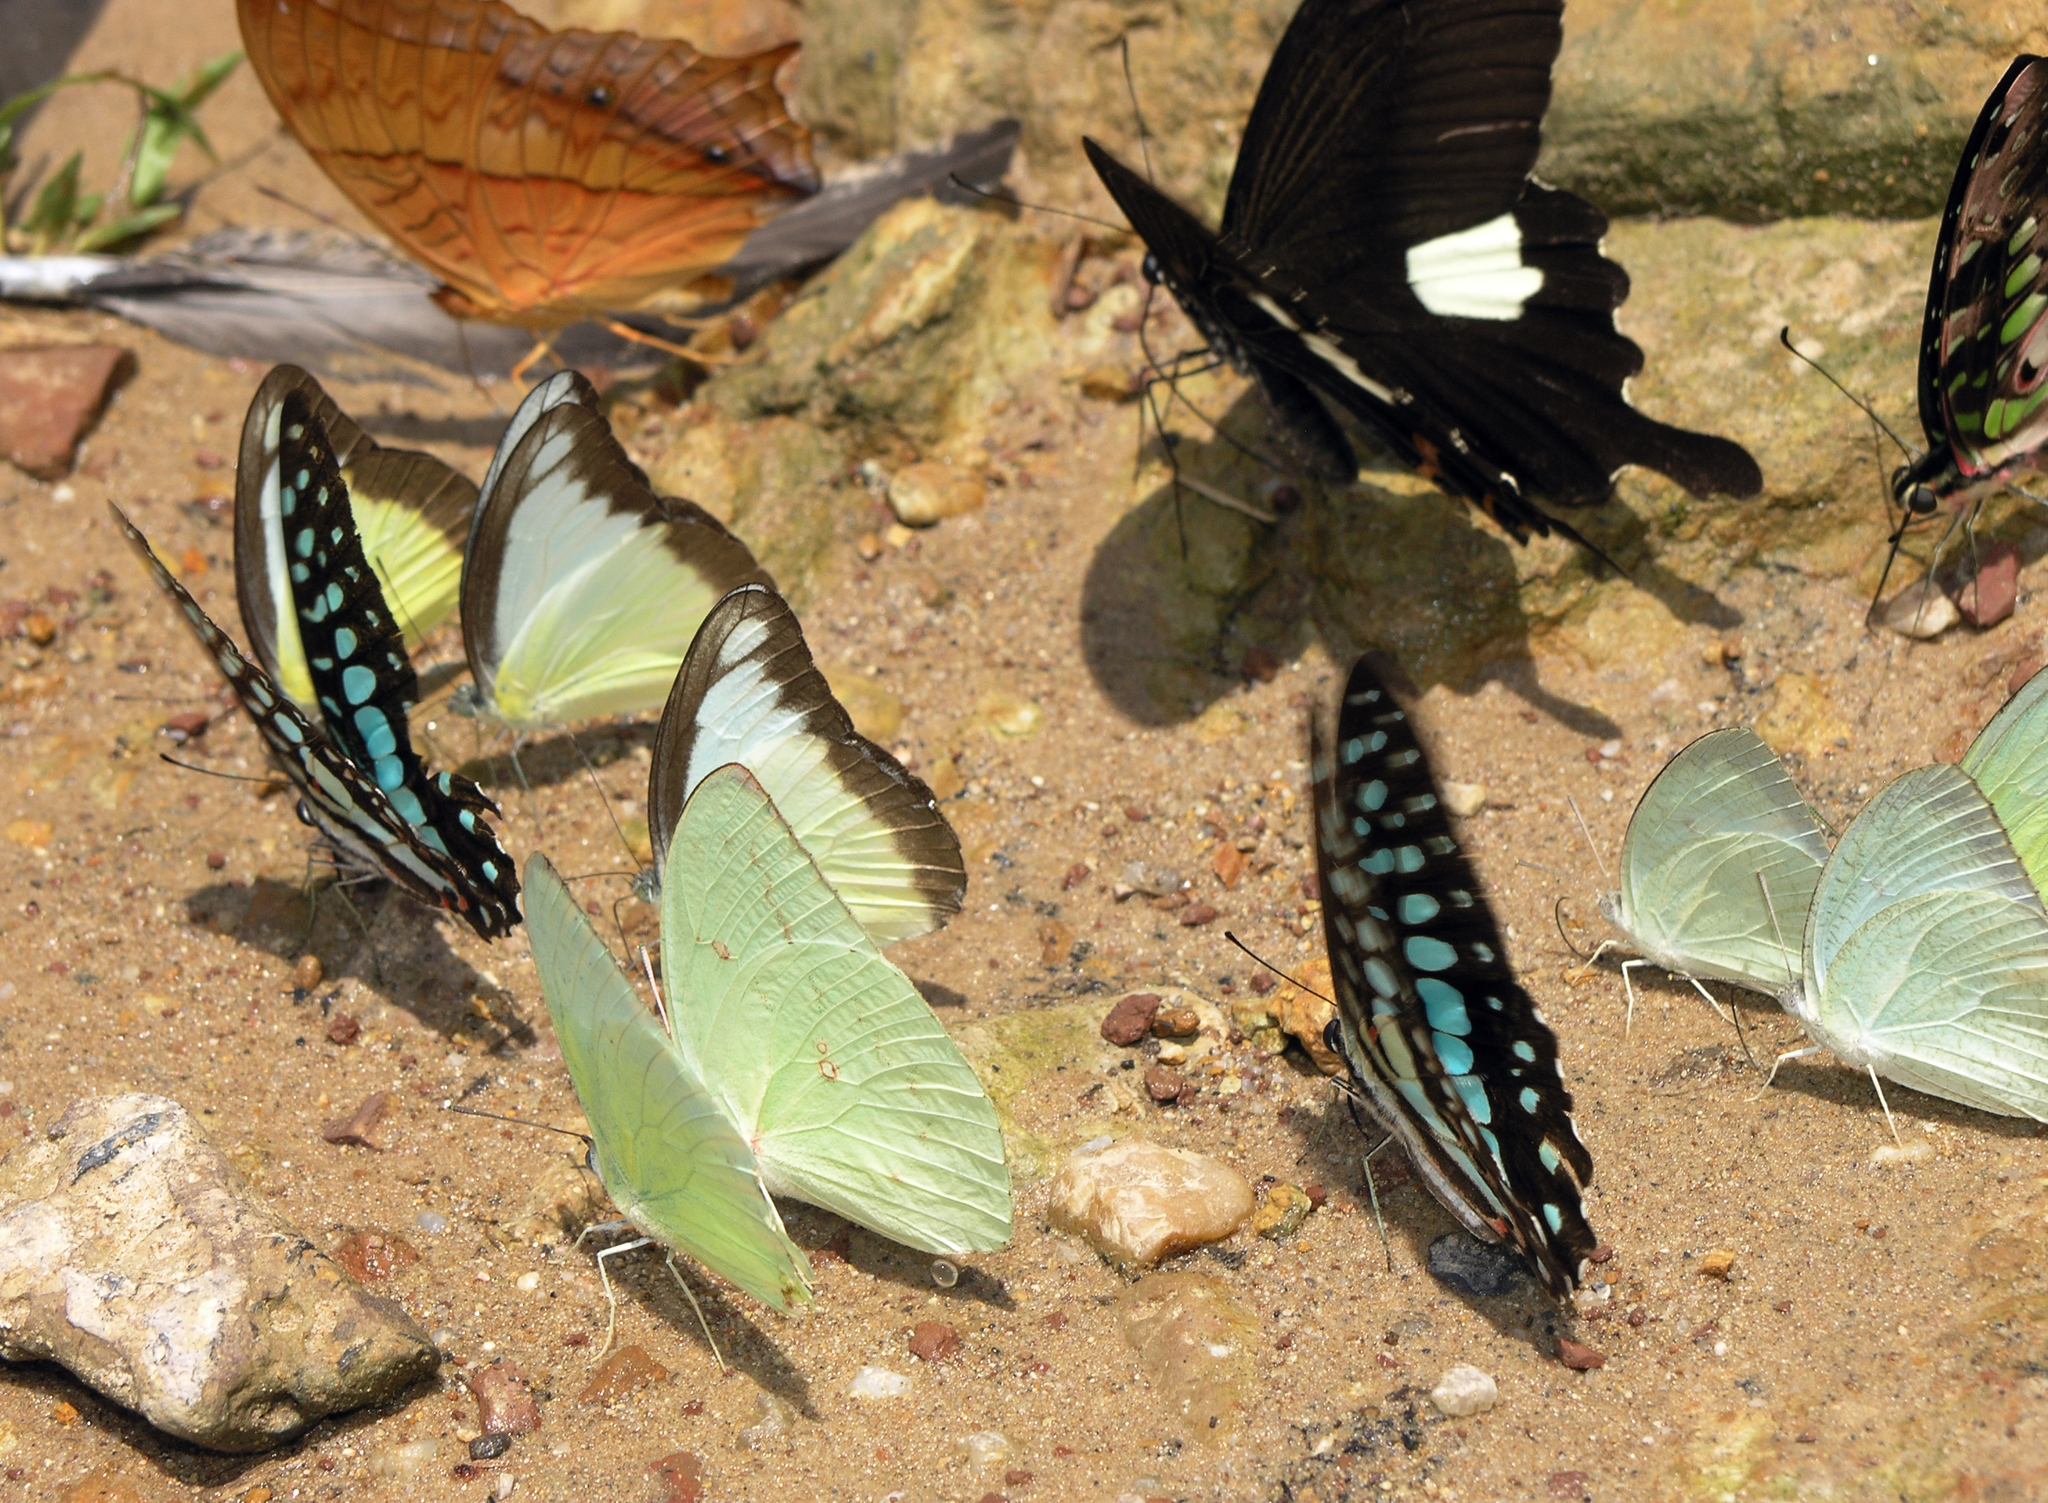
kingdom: Animalia
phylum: Arthropoda
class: Insecta
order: Lepidoptera
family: Papilionidae
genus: Papilio
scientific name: Papilio helenus
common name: Red helen
